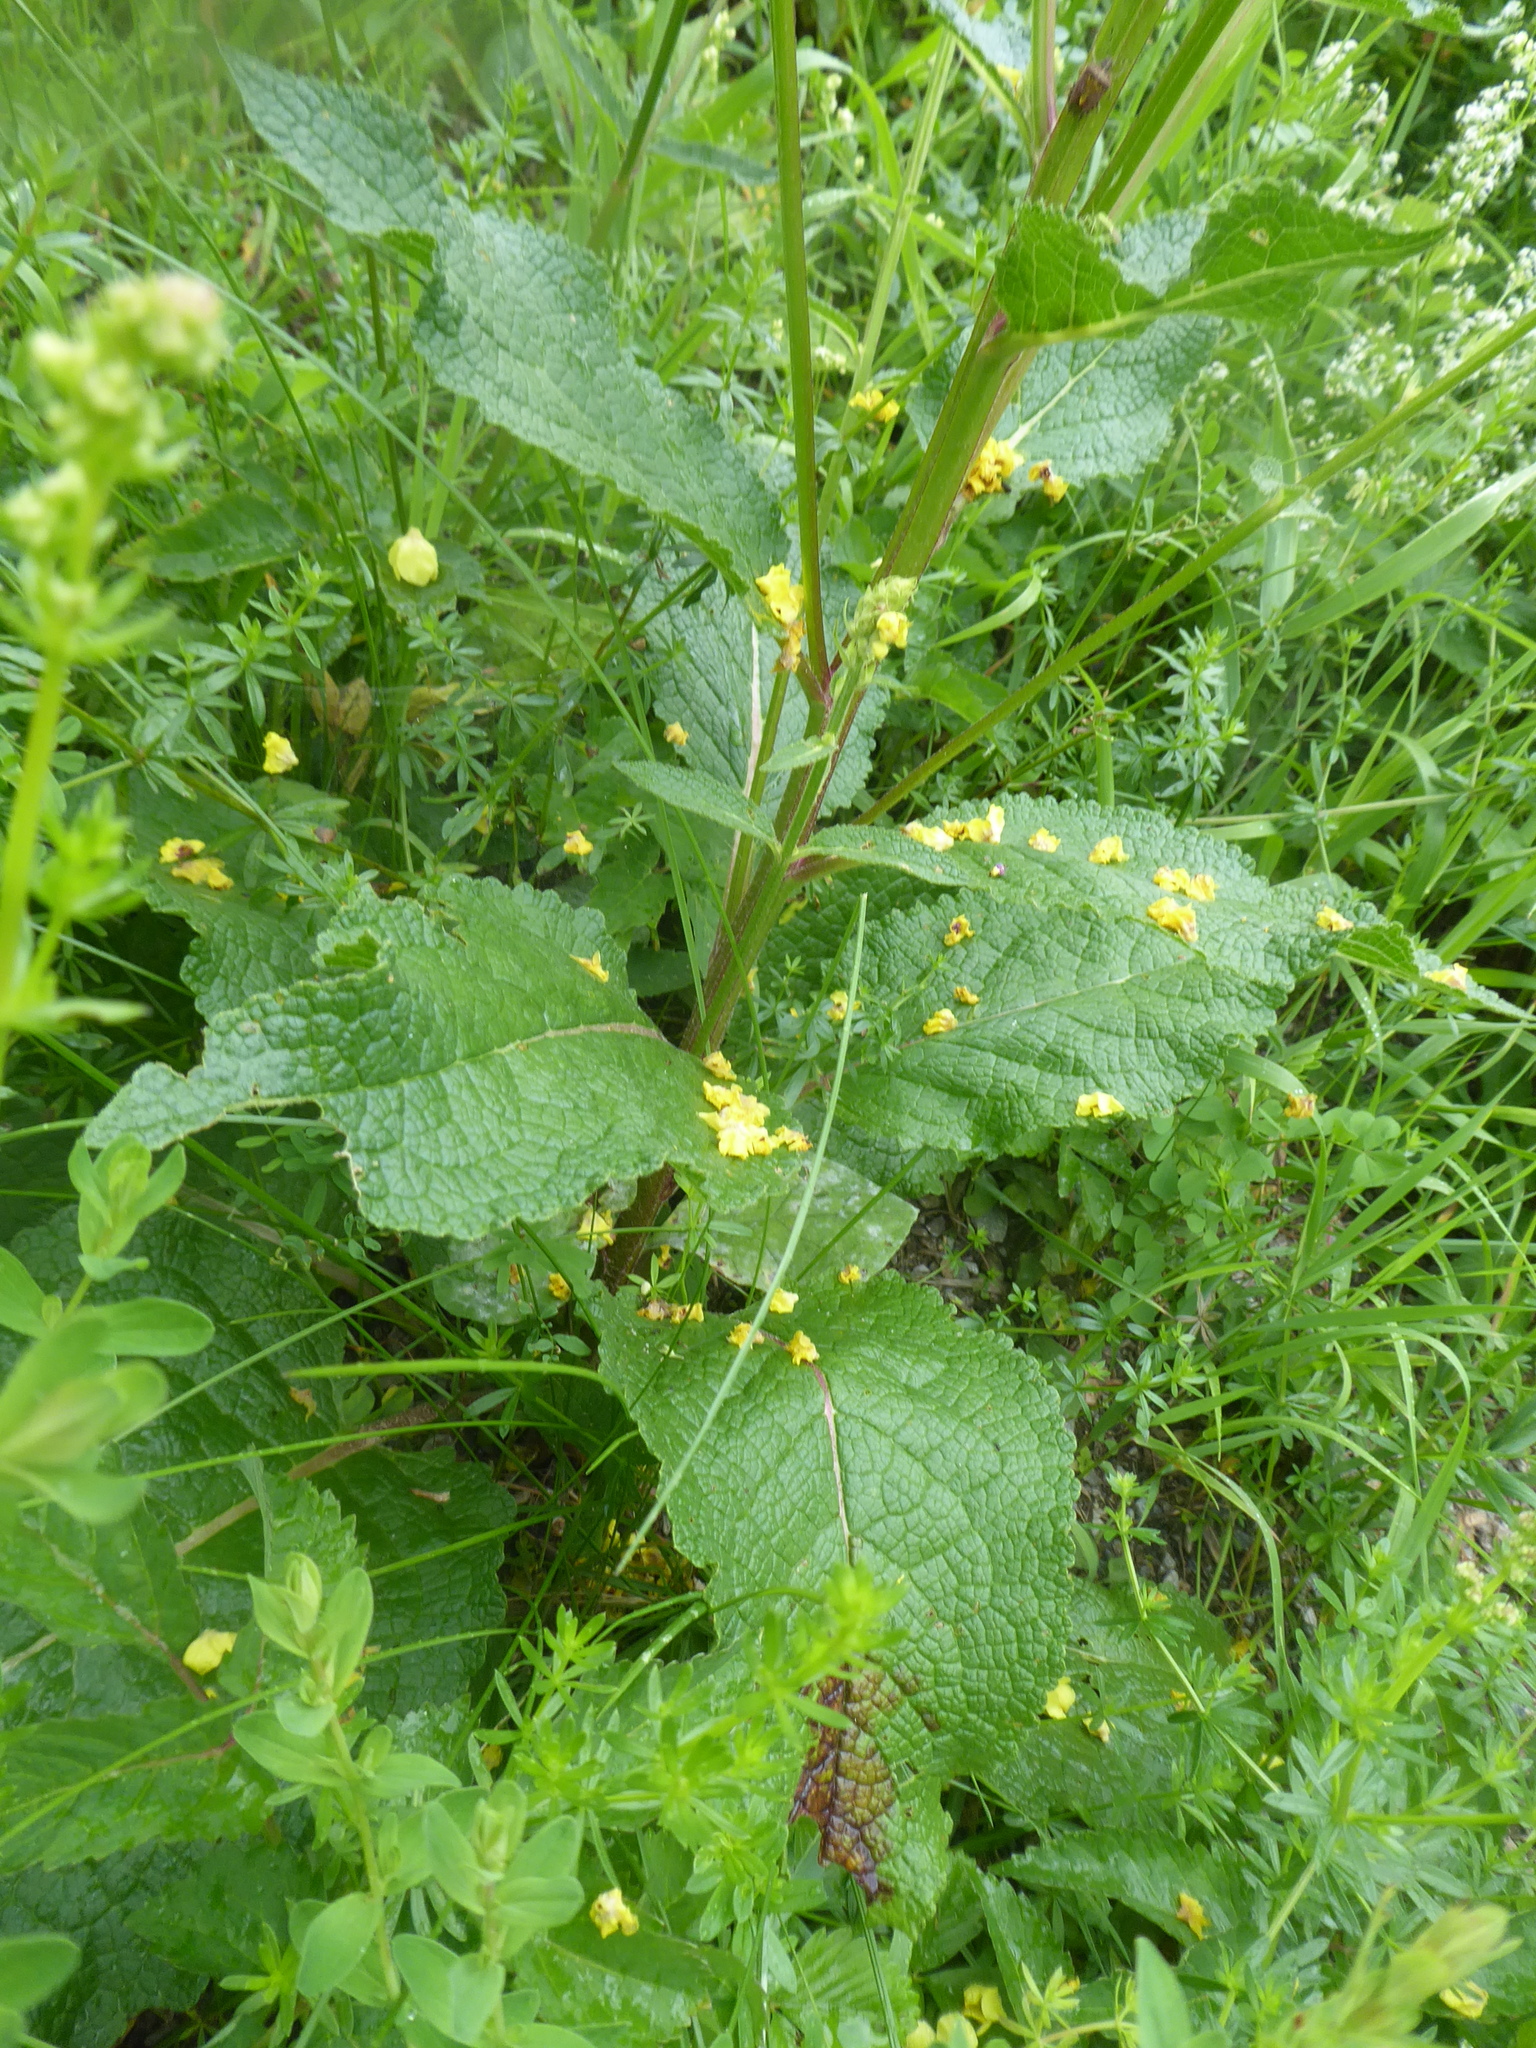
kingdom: Plantae
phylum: Tracheophyta
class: Magnoliopsida
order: Lamiales
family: Scrophulariaceae
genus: Verbascum
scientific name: Verbascum chaixii
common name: Nettle-leaved mullein
